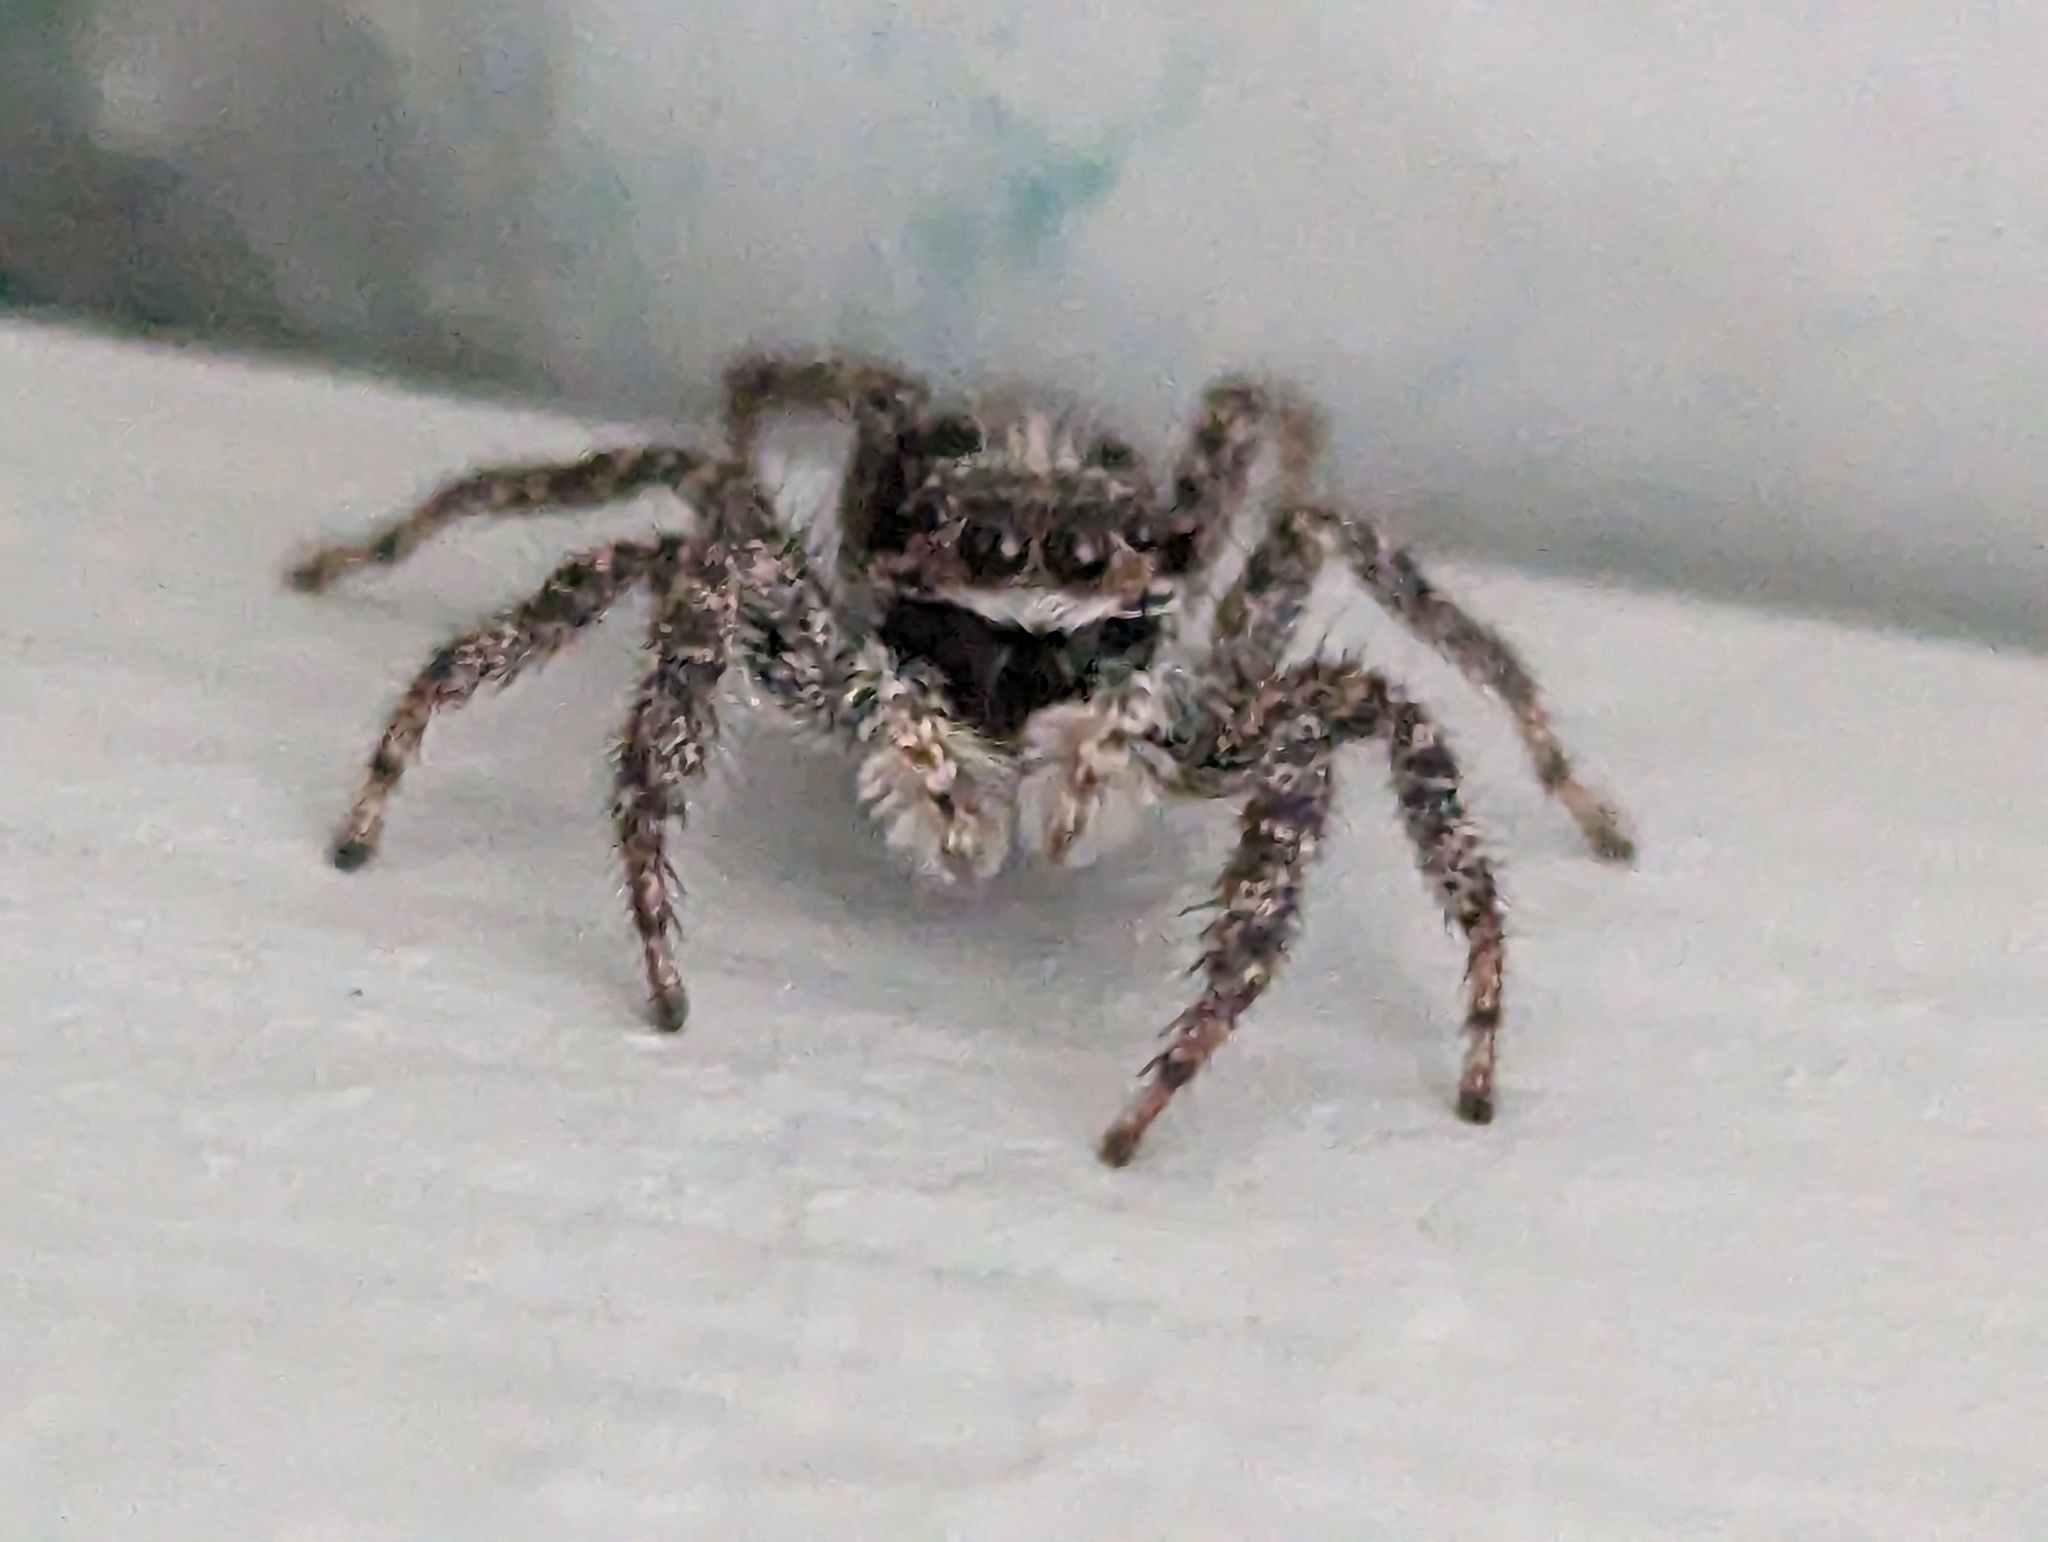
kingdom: Animalia
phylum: Arthropoda
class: Arachnida
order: Araneae
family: Salticidae
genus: Platycryptus
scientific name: Platycryptus californicus
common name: Jumping spiders
